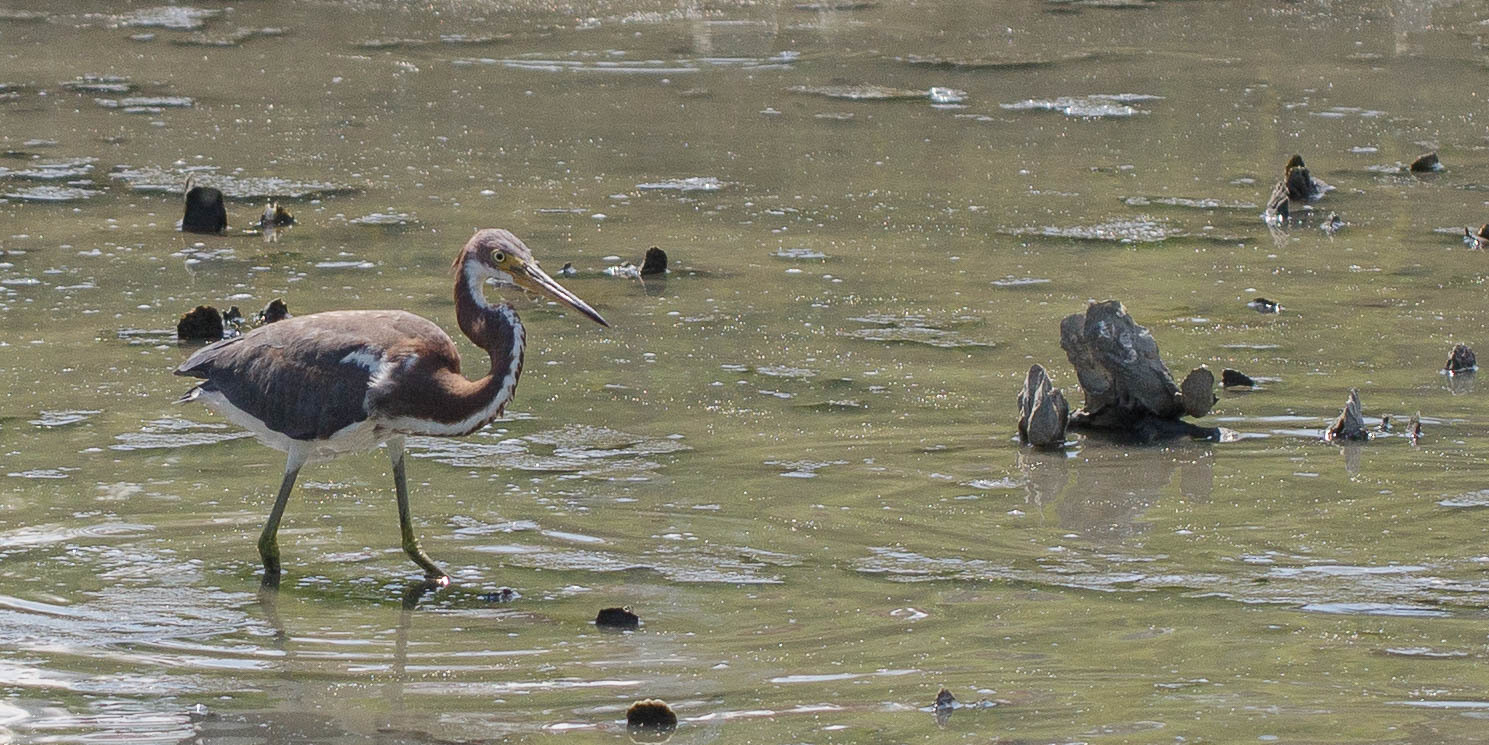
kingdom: Animalia
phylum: Chordata
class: Aves
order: Pelecaniformes
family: Ardeidae
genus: Egretta
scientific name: Egretta tricolor
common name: Tricolored heron
